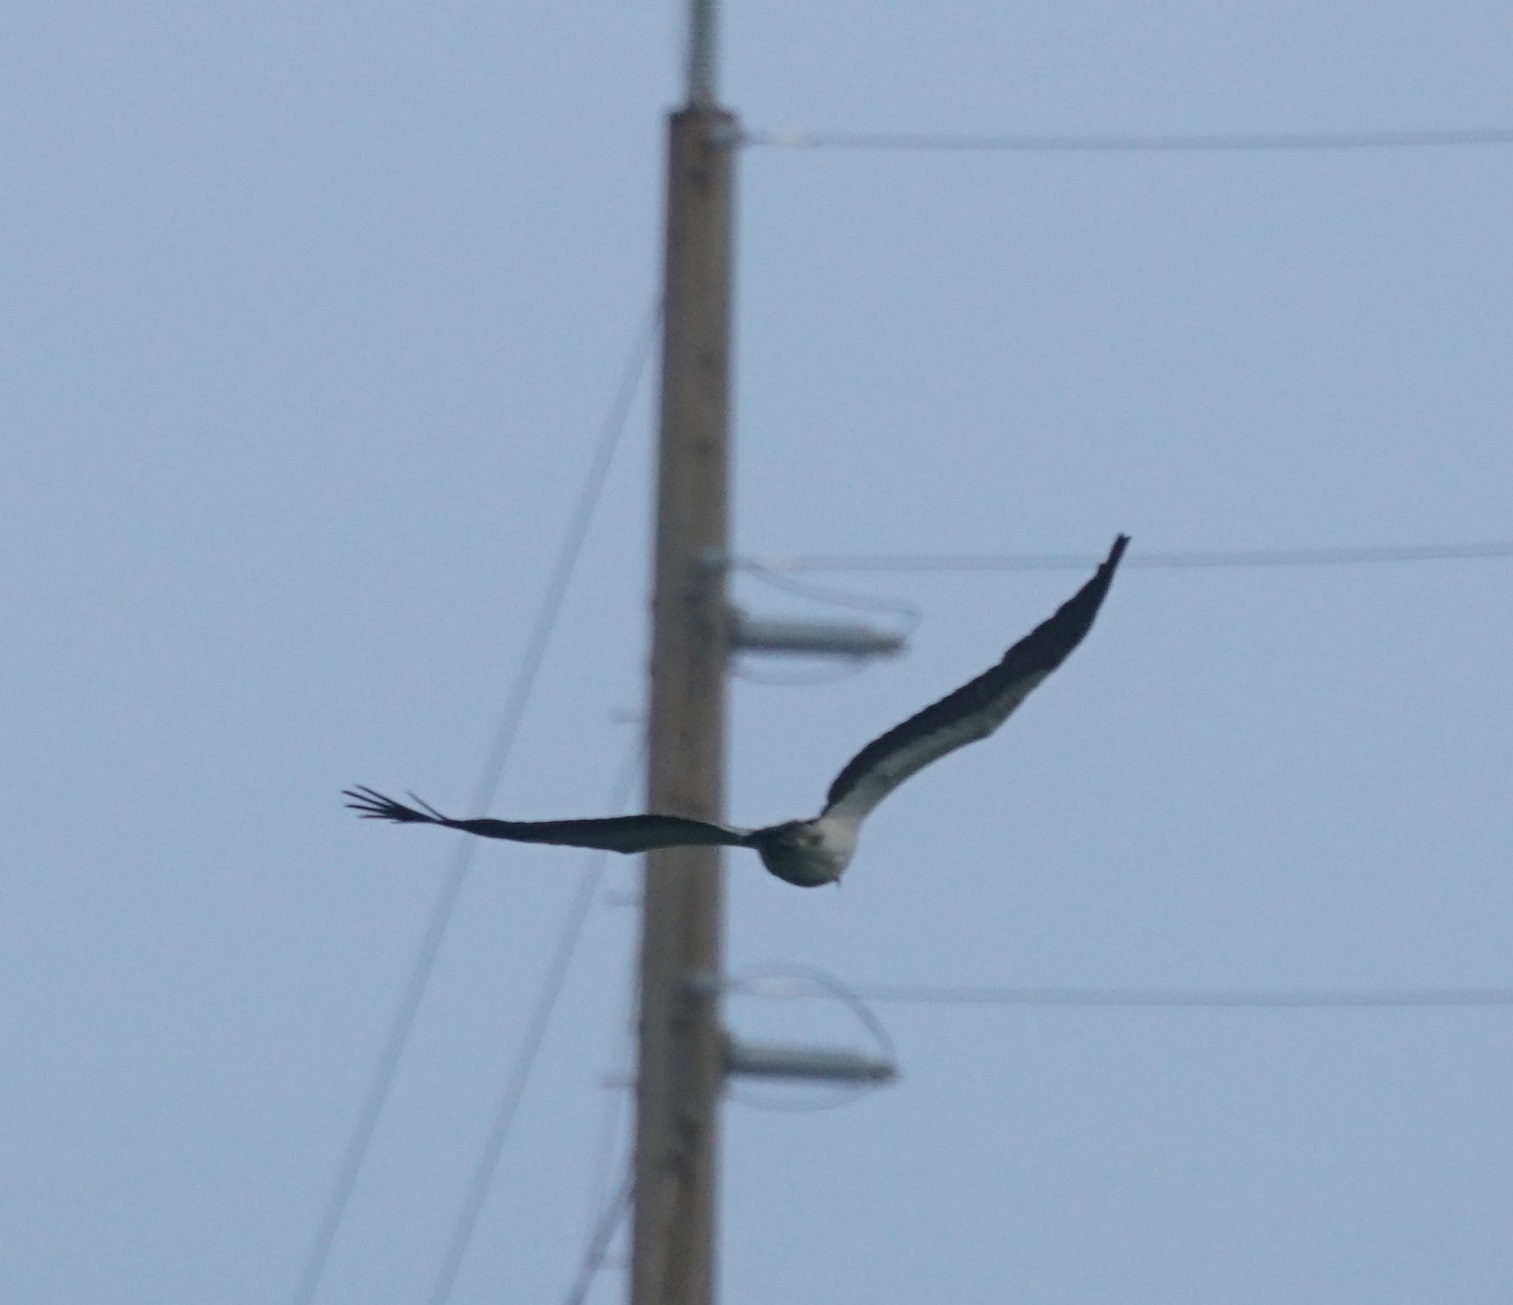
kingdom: Animalia
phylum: Chordata
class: Aves
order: Accipitriformes
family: Accipitridae
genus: Haliaeetus
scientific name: Haliaeetus leucogaster
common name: White-bellied sea eagle
